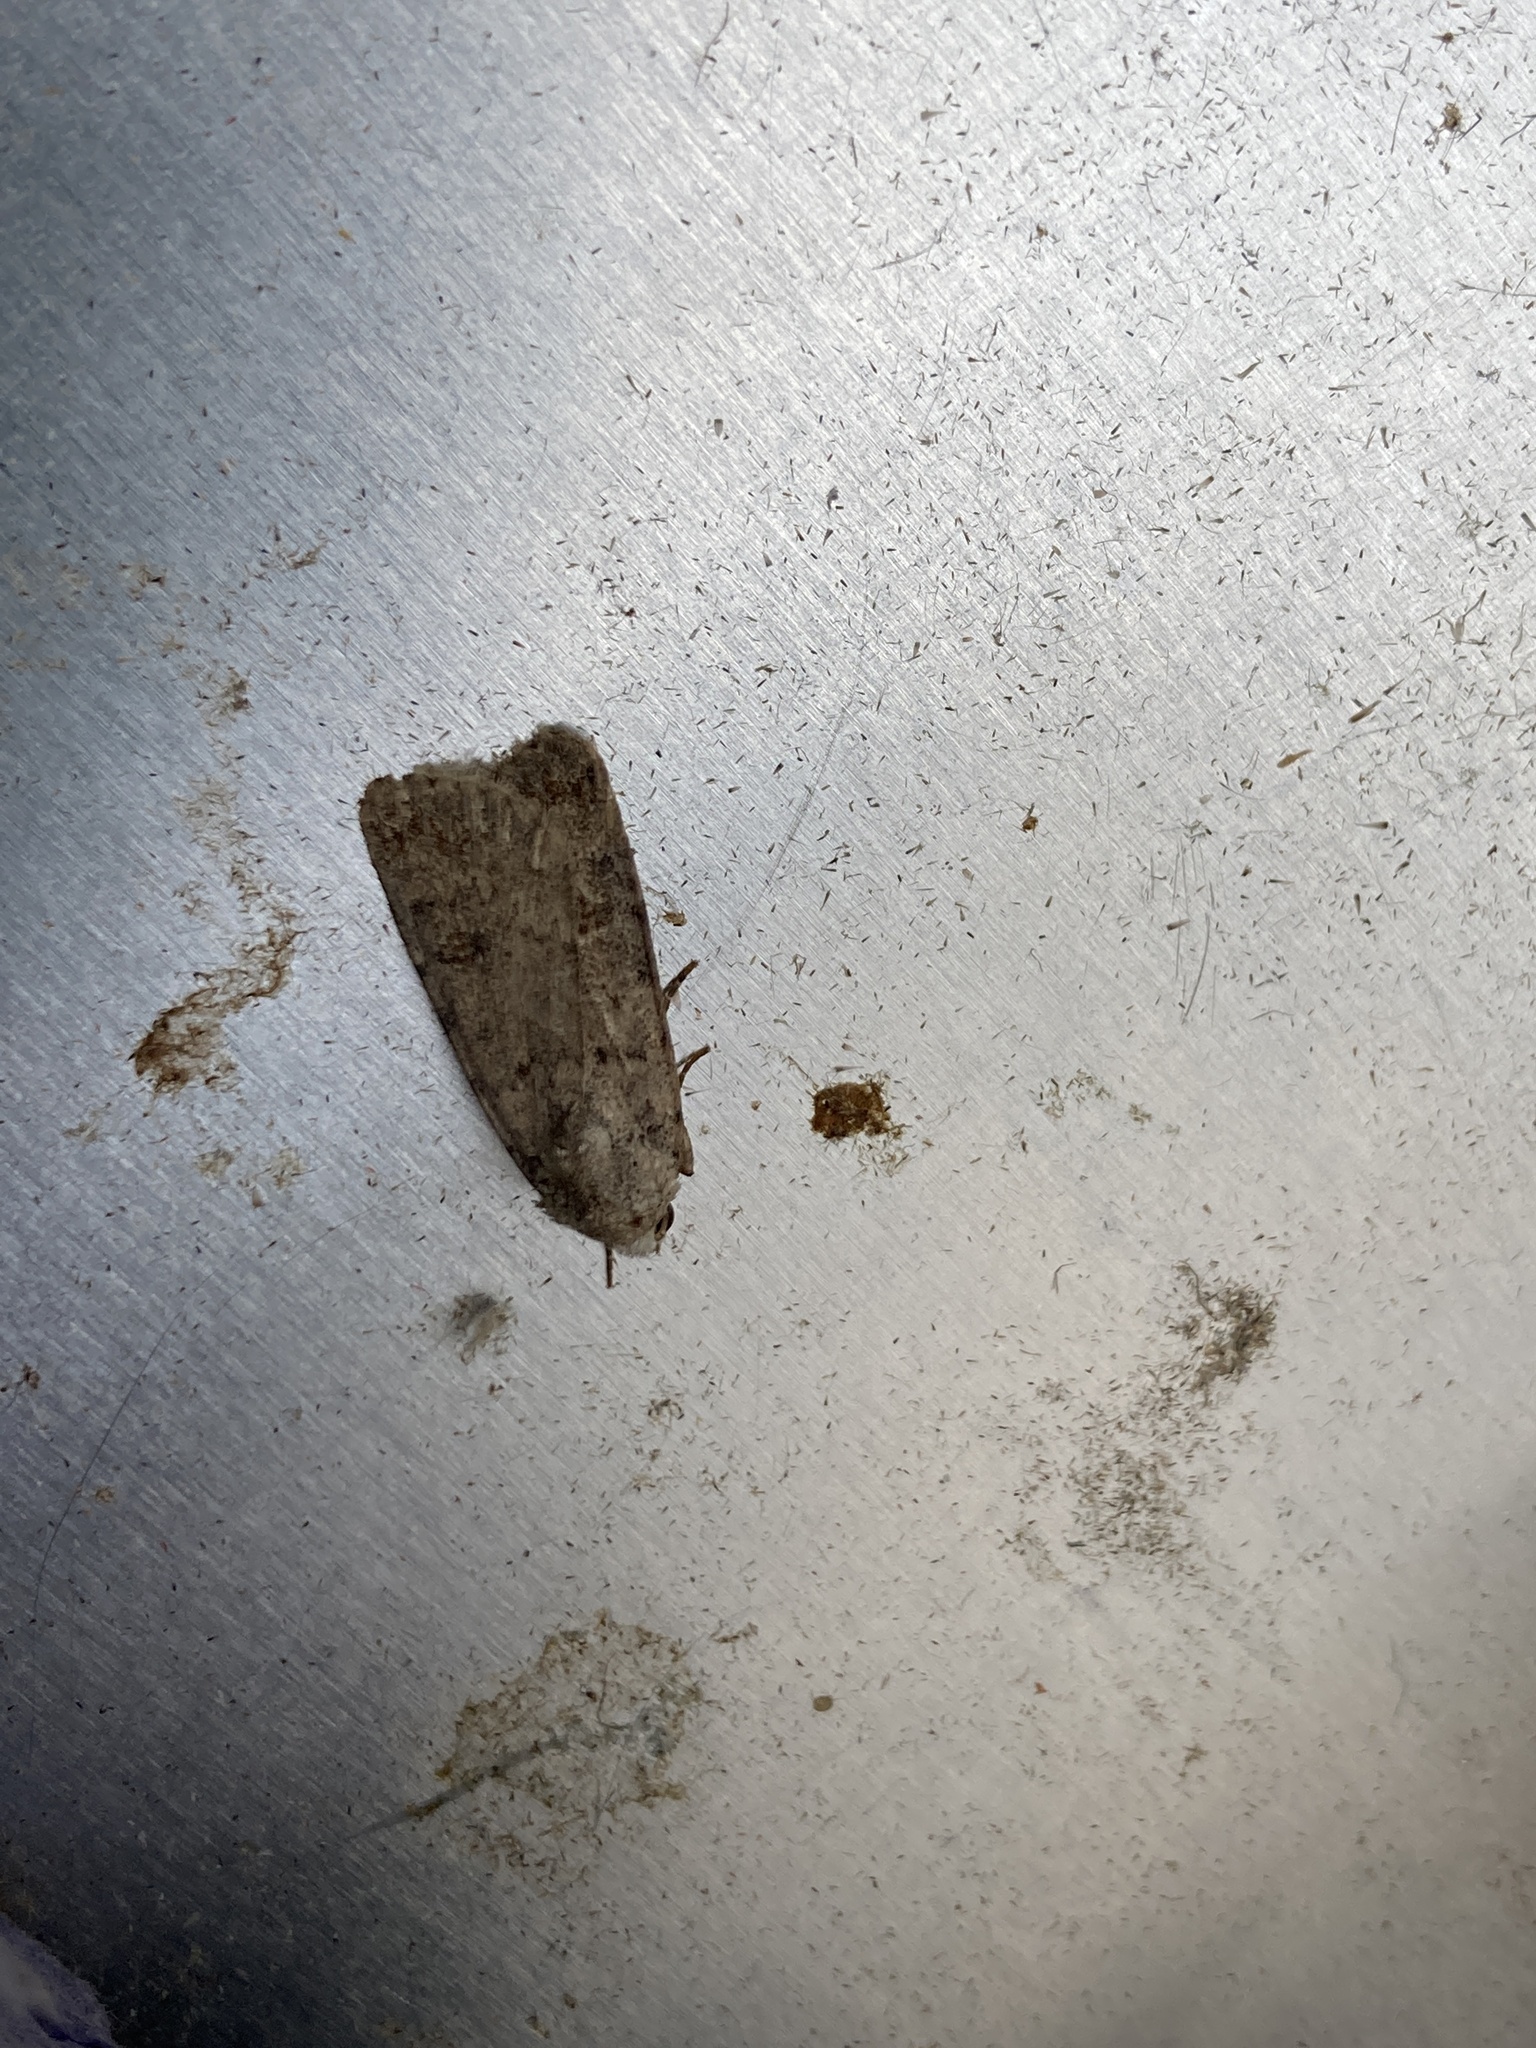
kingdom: Animalia
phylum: Arthropoda
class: Insecta
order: Lepidoptera
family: Noctuidae
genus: Caradrina
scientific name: Caradrina clavipalpis
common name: Pale mottled willow
